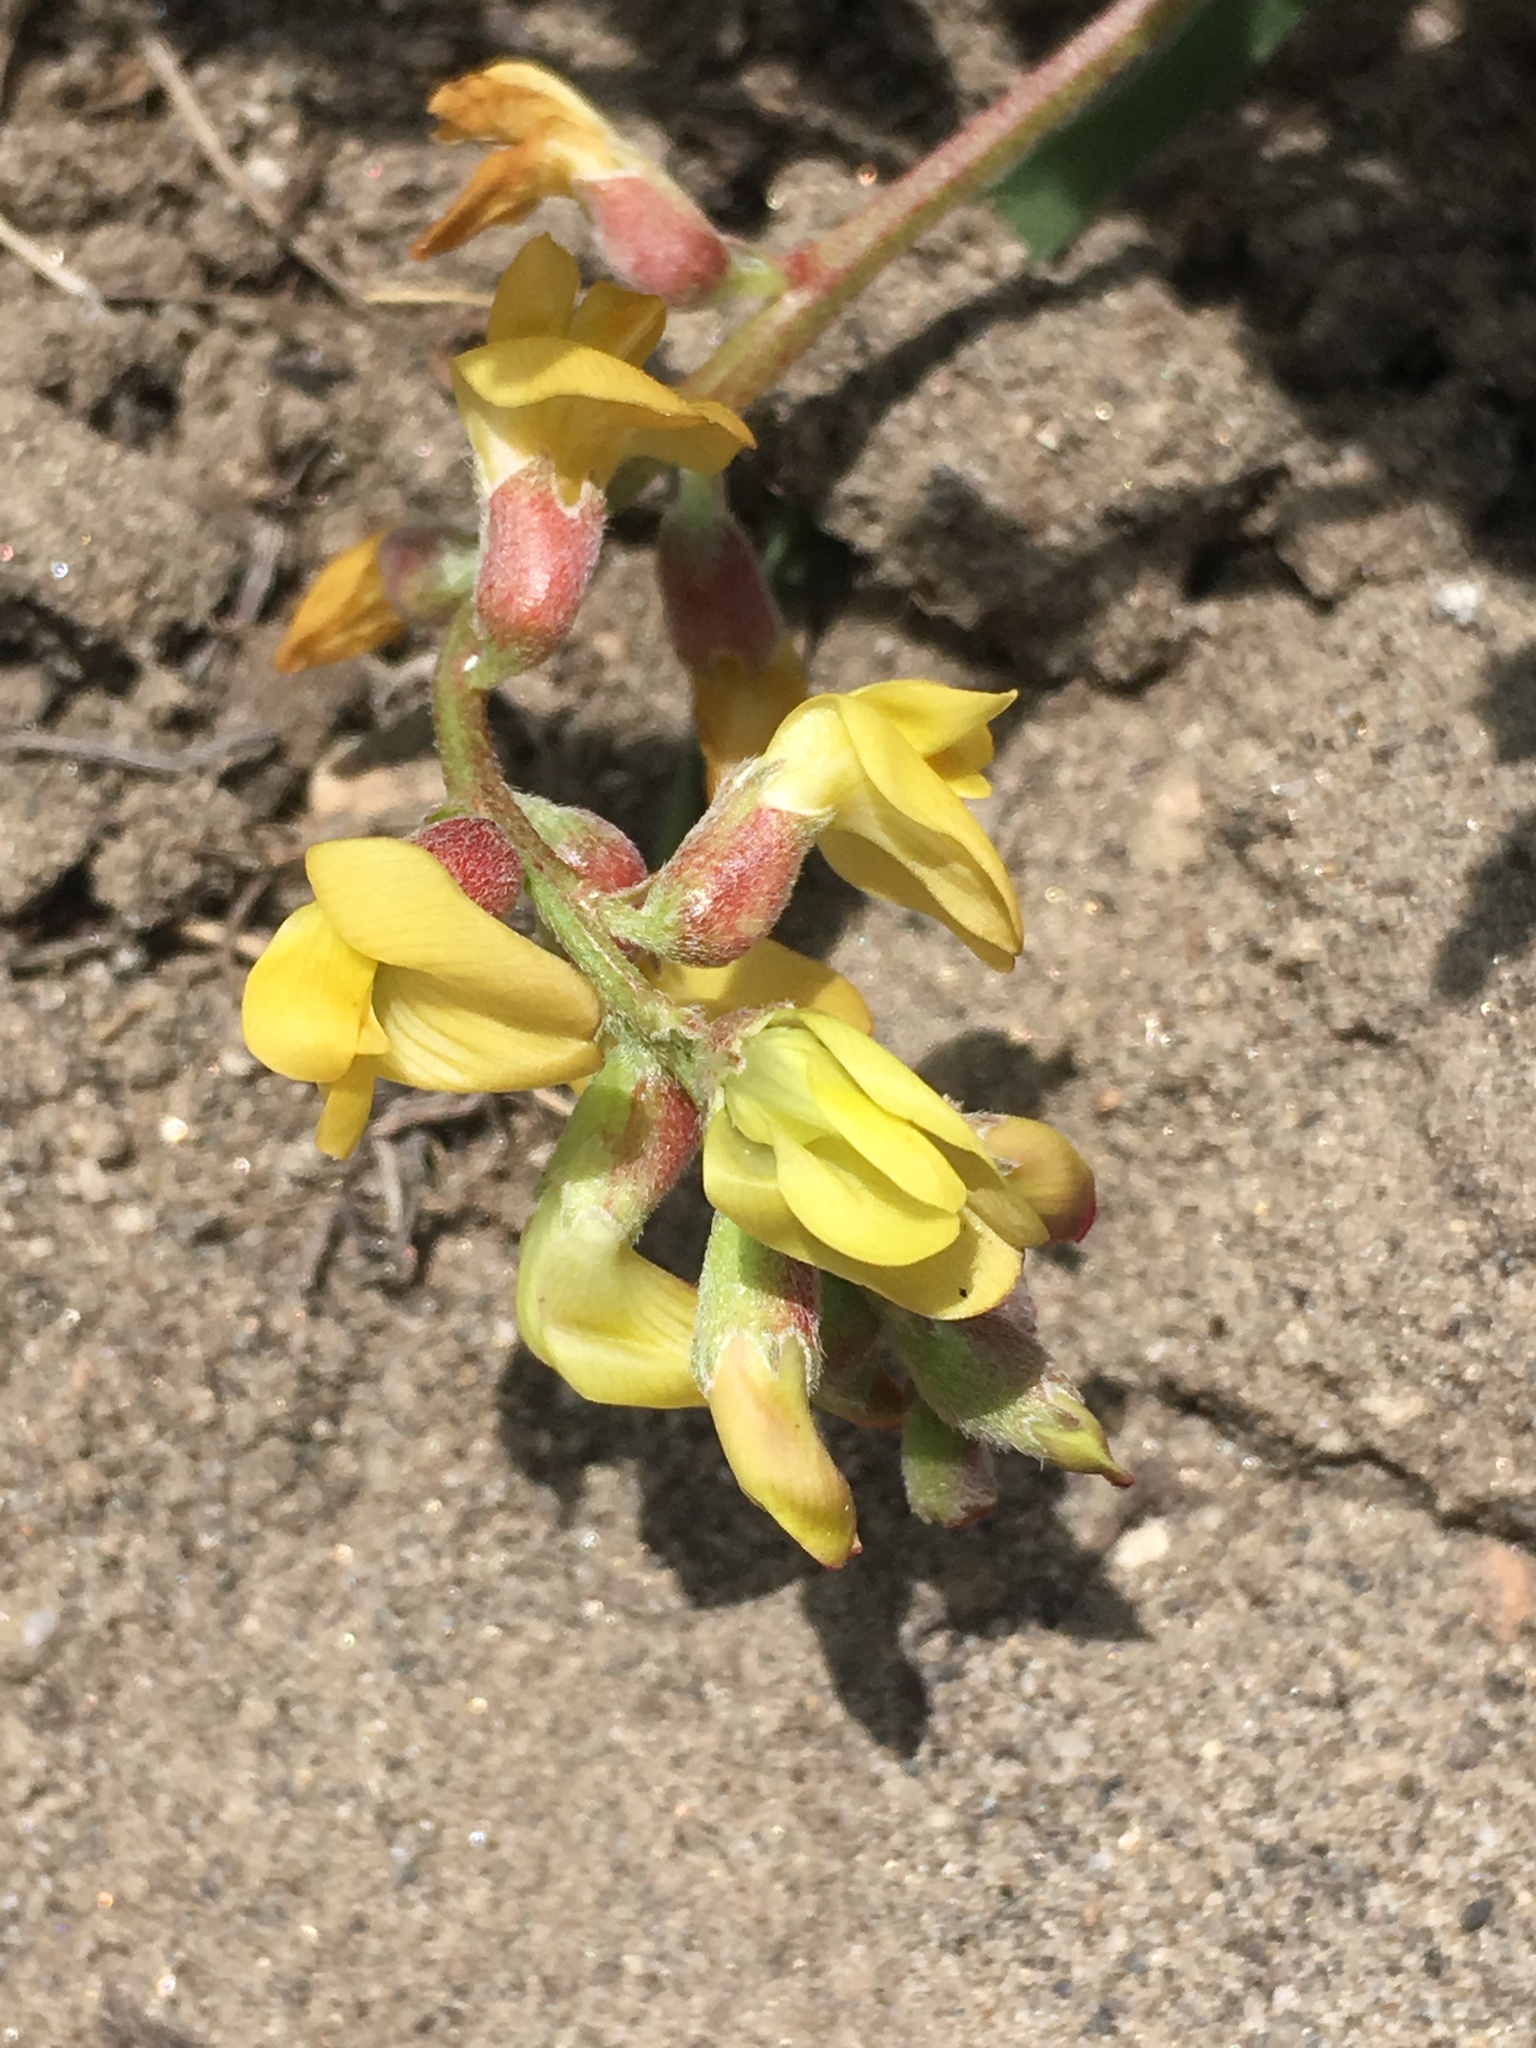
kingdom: Plantae
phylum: Tracheophyta
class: Magnoliopsida
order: Fabales
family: Fabaceae
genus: Astragalus
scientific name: Astragalus douglasii
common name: Jacumba milkvetch
